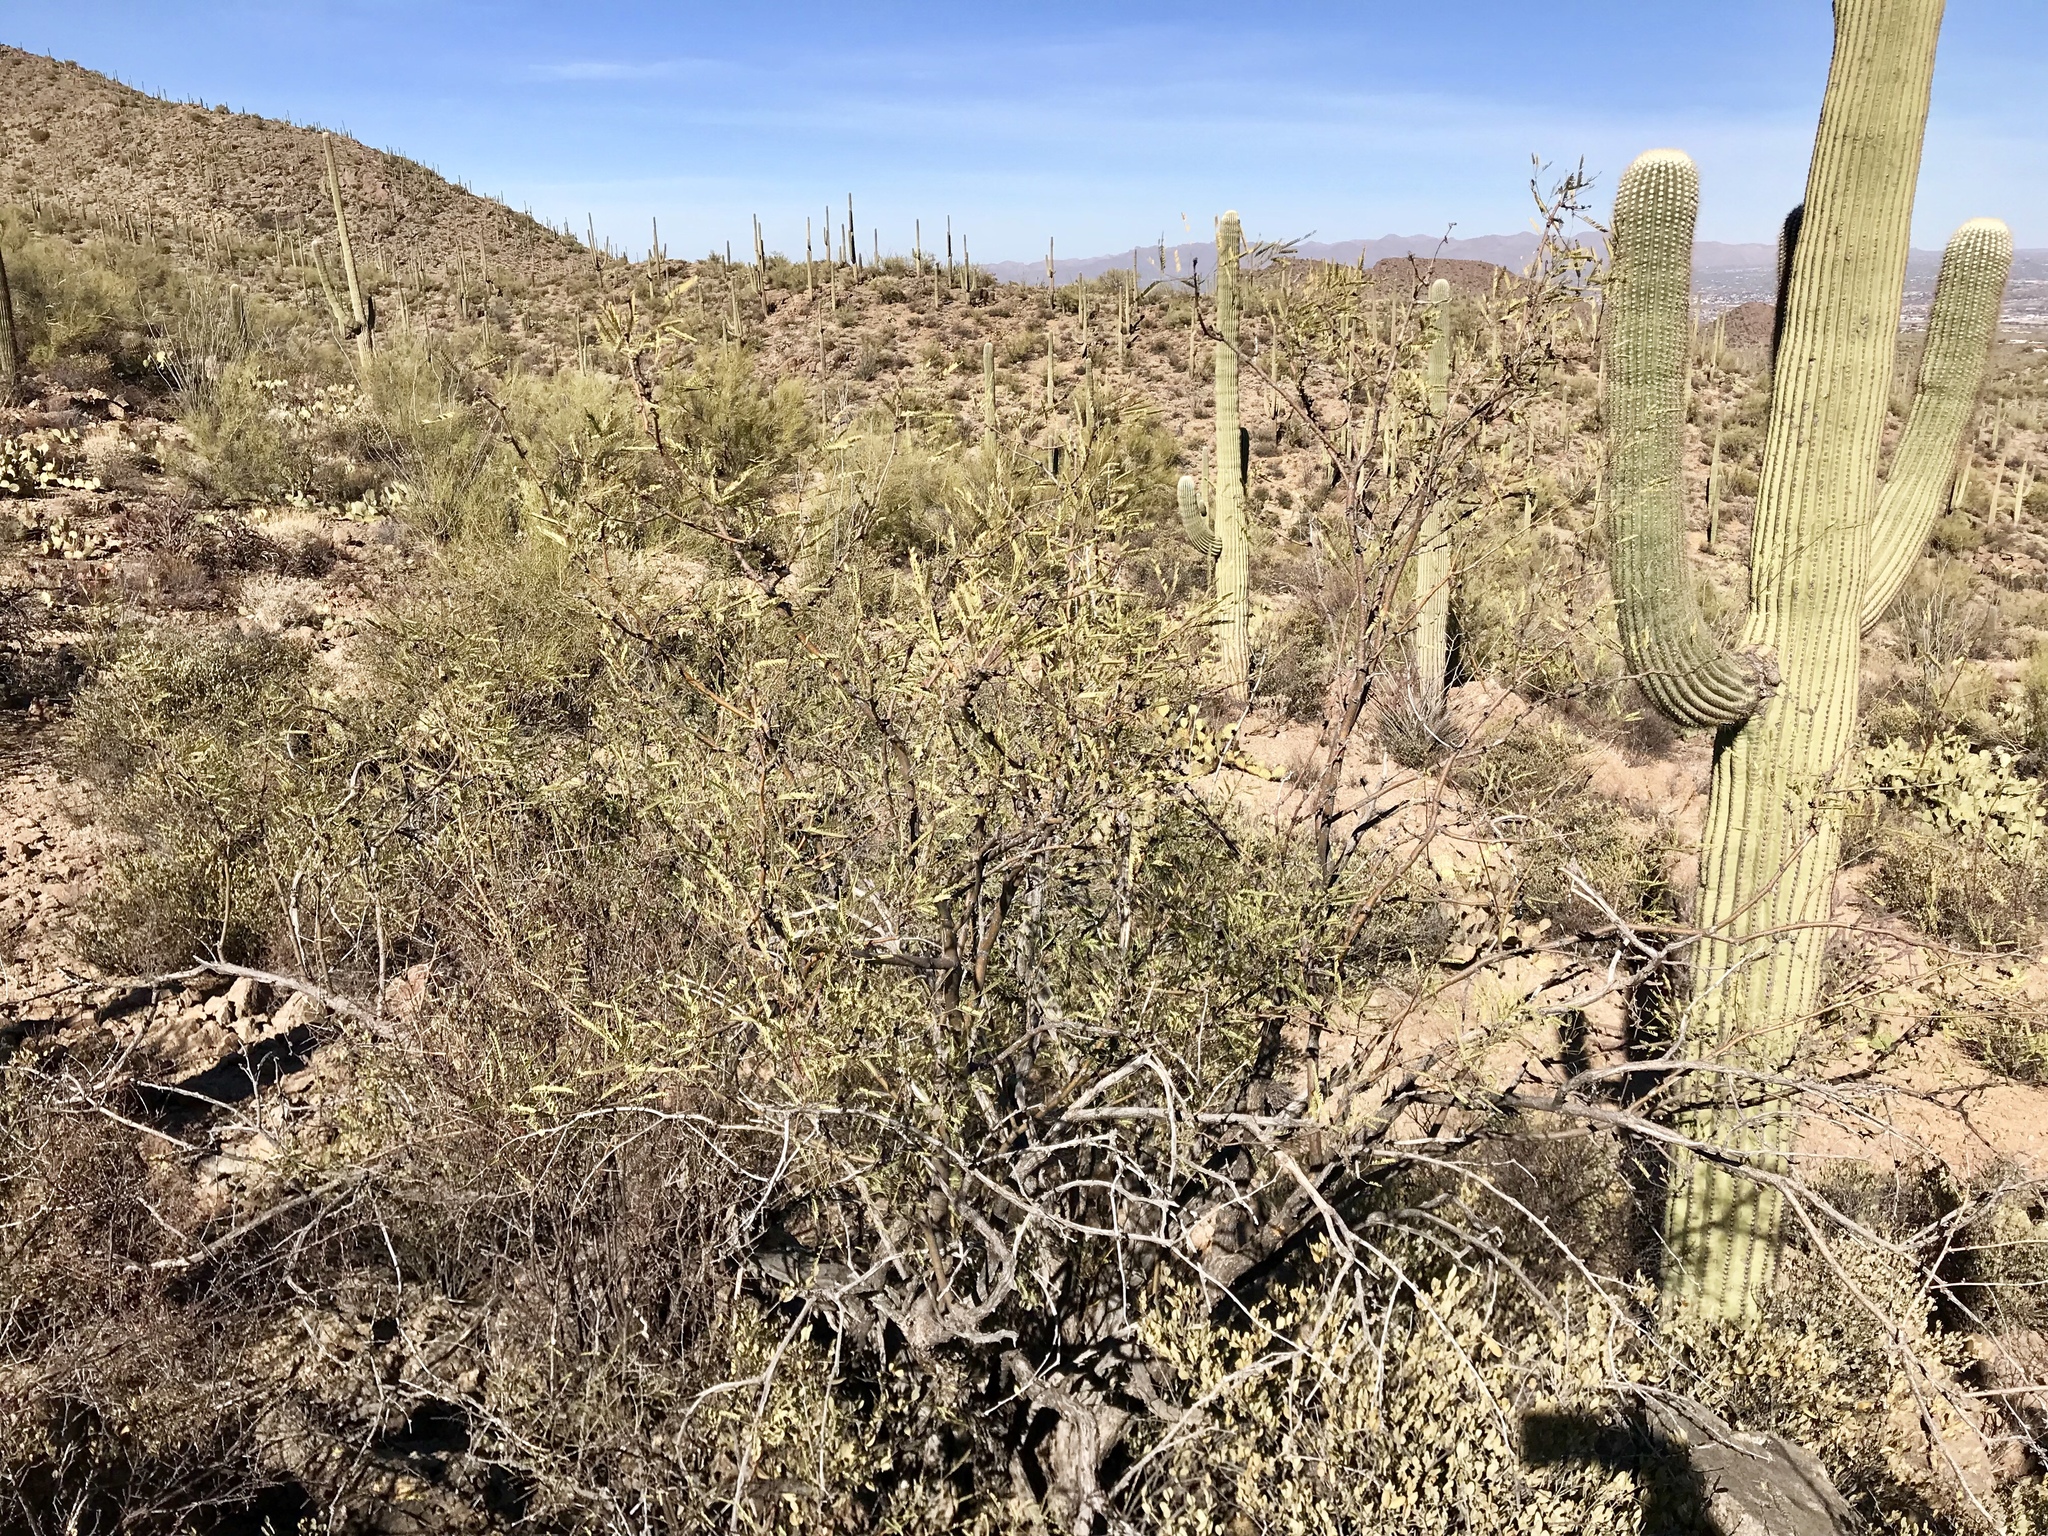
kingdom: Plantae
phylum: Tracheophyta
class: Magnoliopsida
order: Fabales
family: Fabaceae
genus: Prosopis
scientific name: Prosopis velutina
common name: Velvet mesquite
